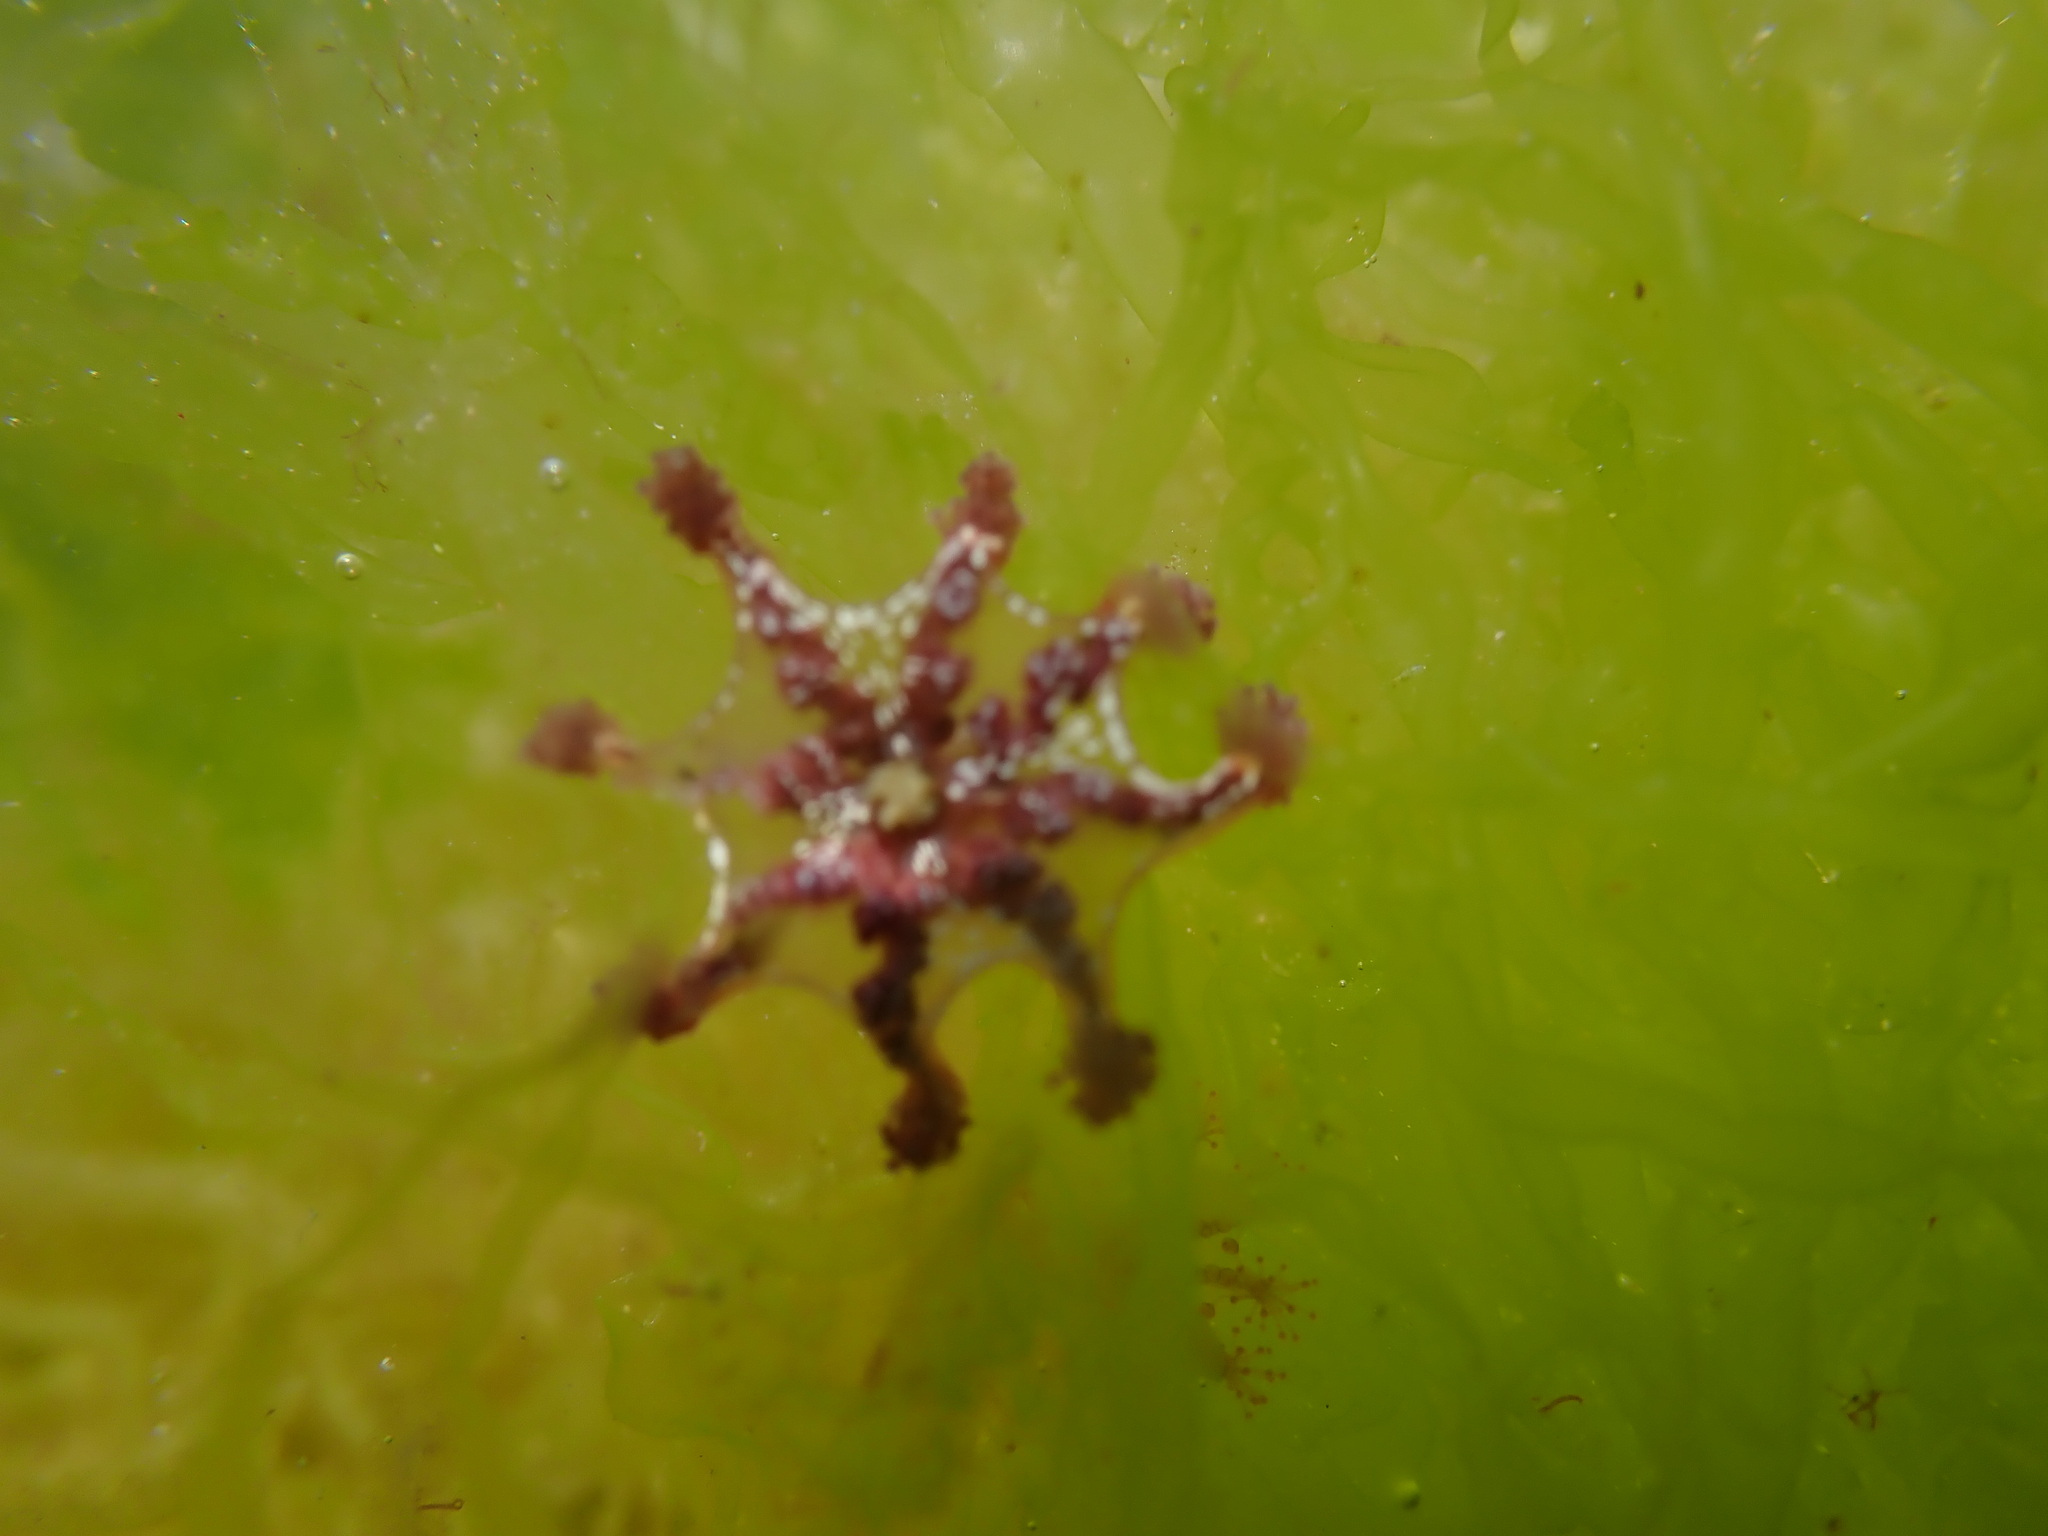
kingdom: Animalia
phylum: Cnidaria
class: Staurozoa
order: Stauromedusae
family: Kishinouyeidae
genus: Calvadosia
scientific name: Calvadosia cruxmelitensis
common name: St. john's jellyfish
